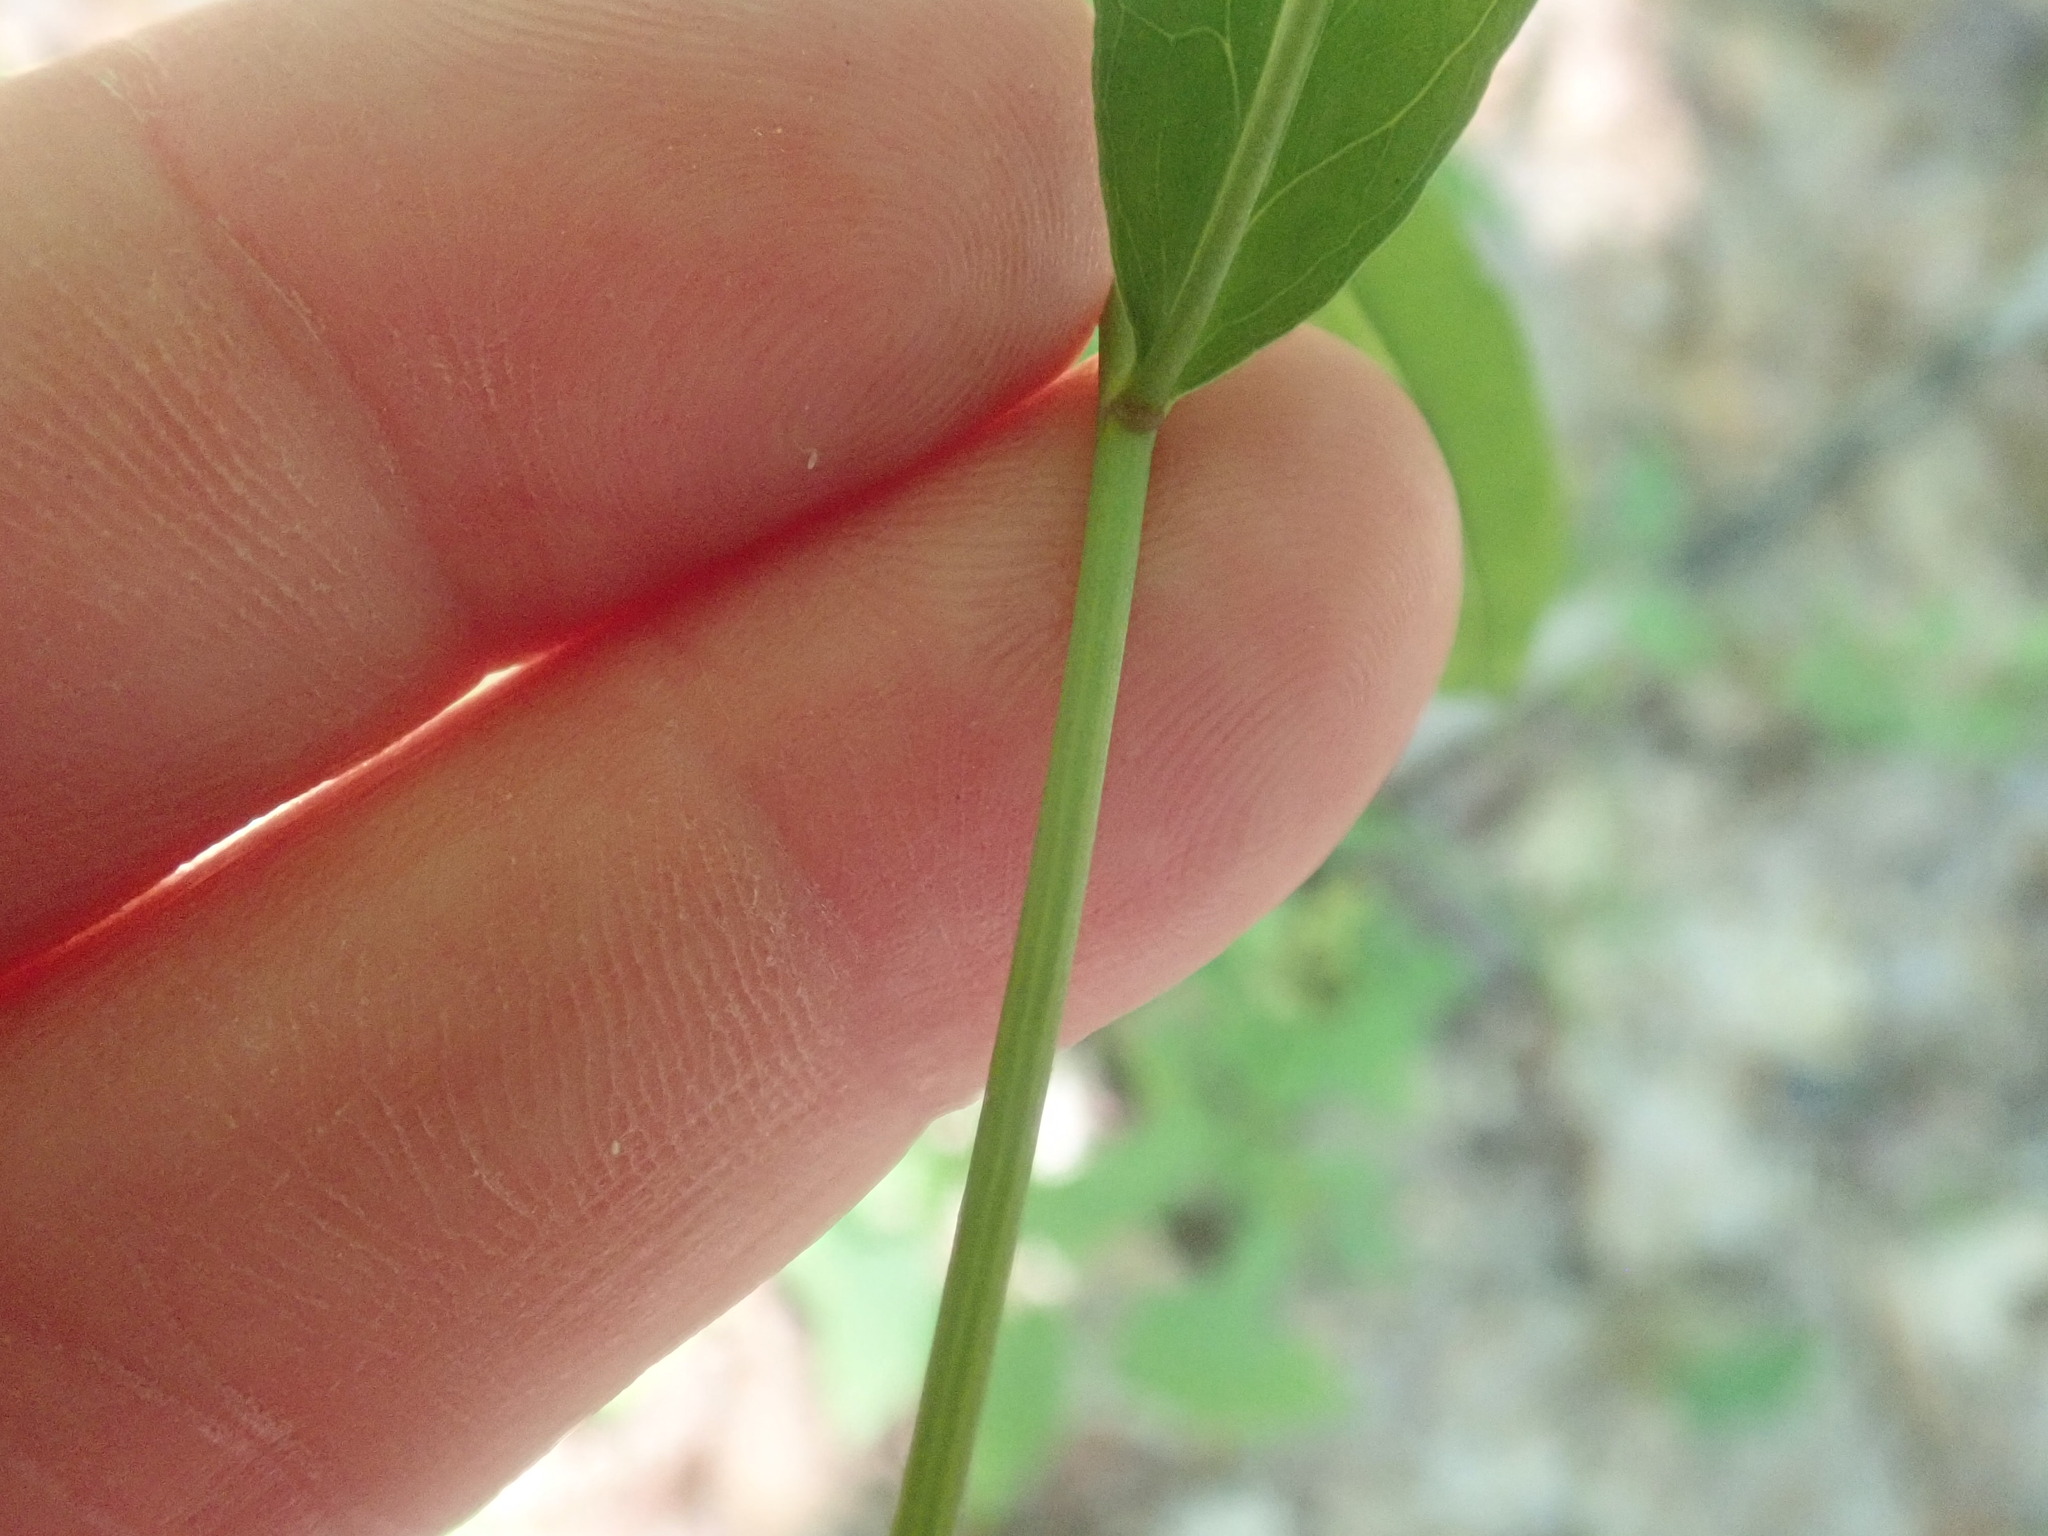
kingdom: Plantae
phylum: Tracheophyta
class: Magnoliopsida
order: Asterales
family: Asteraceae
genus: Hieracium
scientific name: Hieracium paniculatum
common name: Allegheny hawkweed
